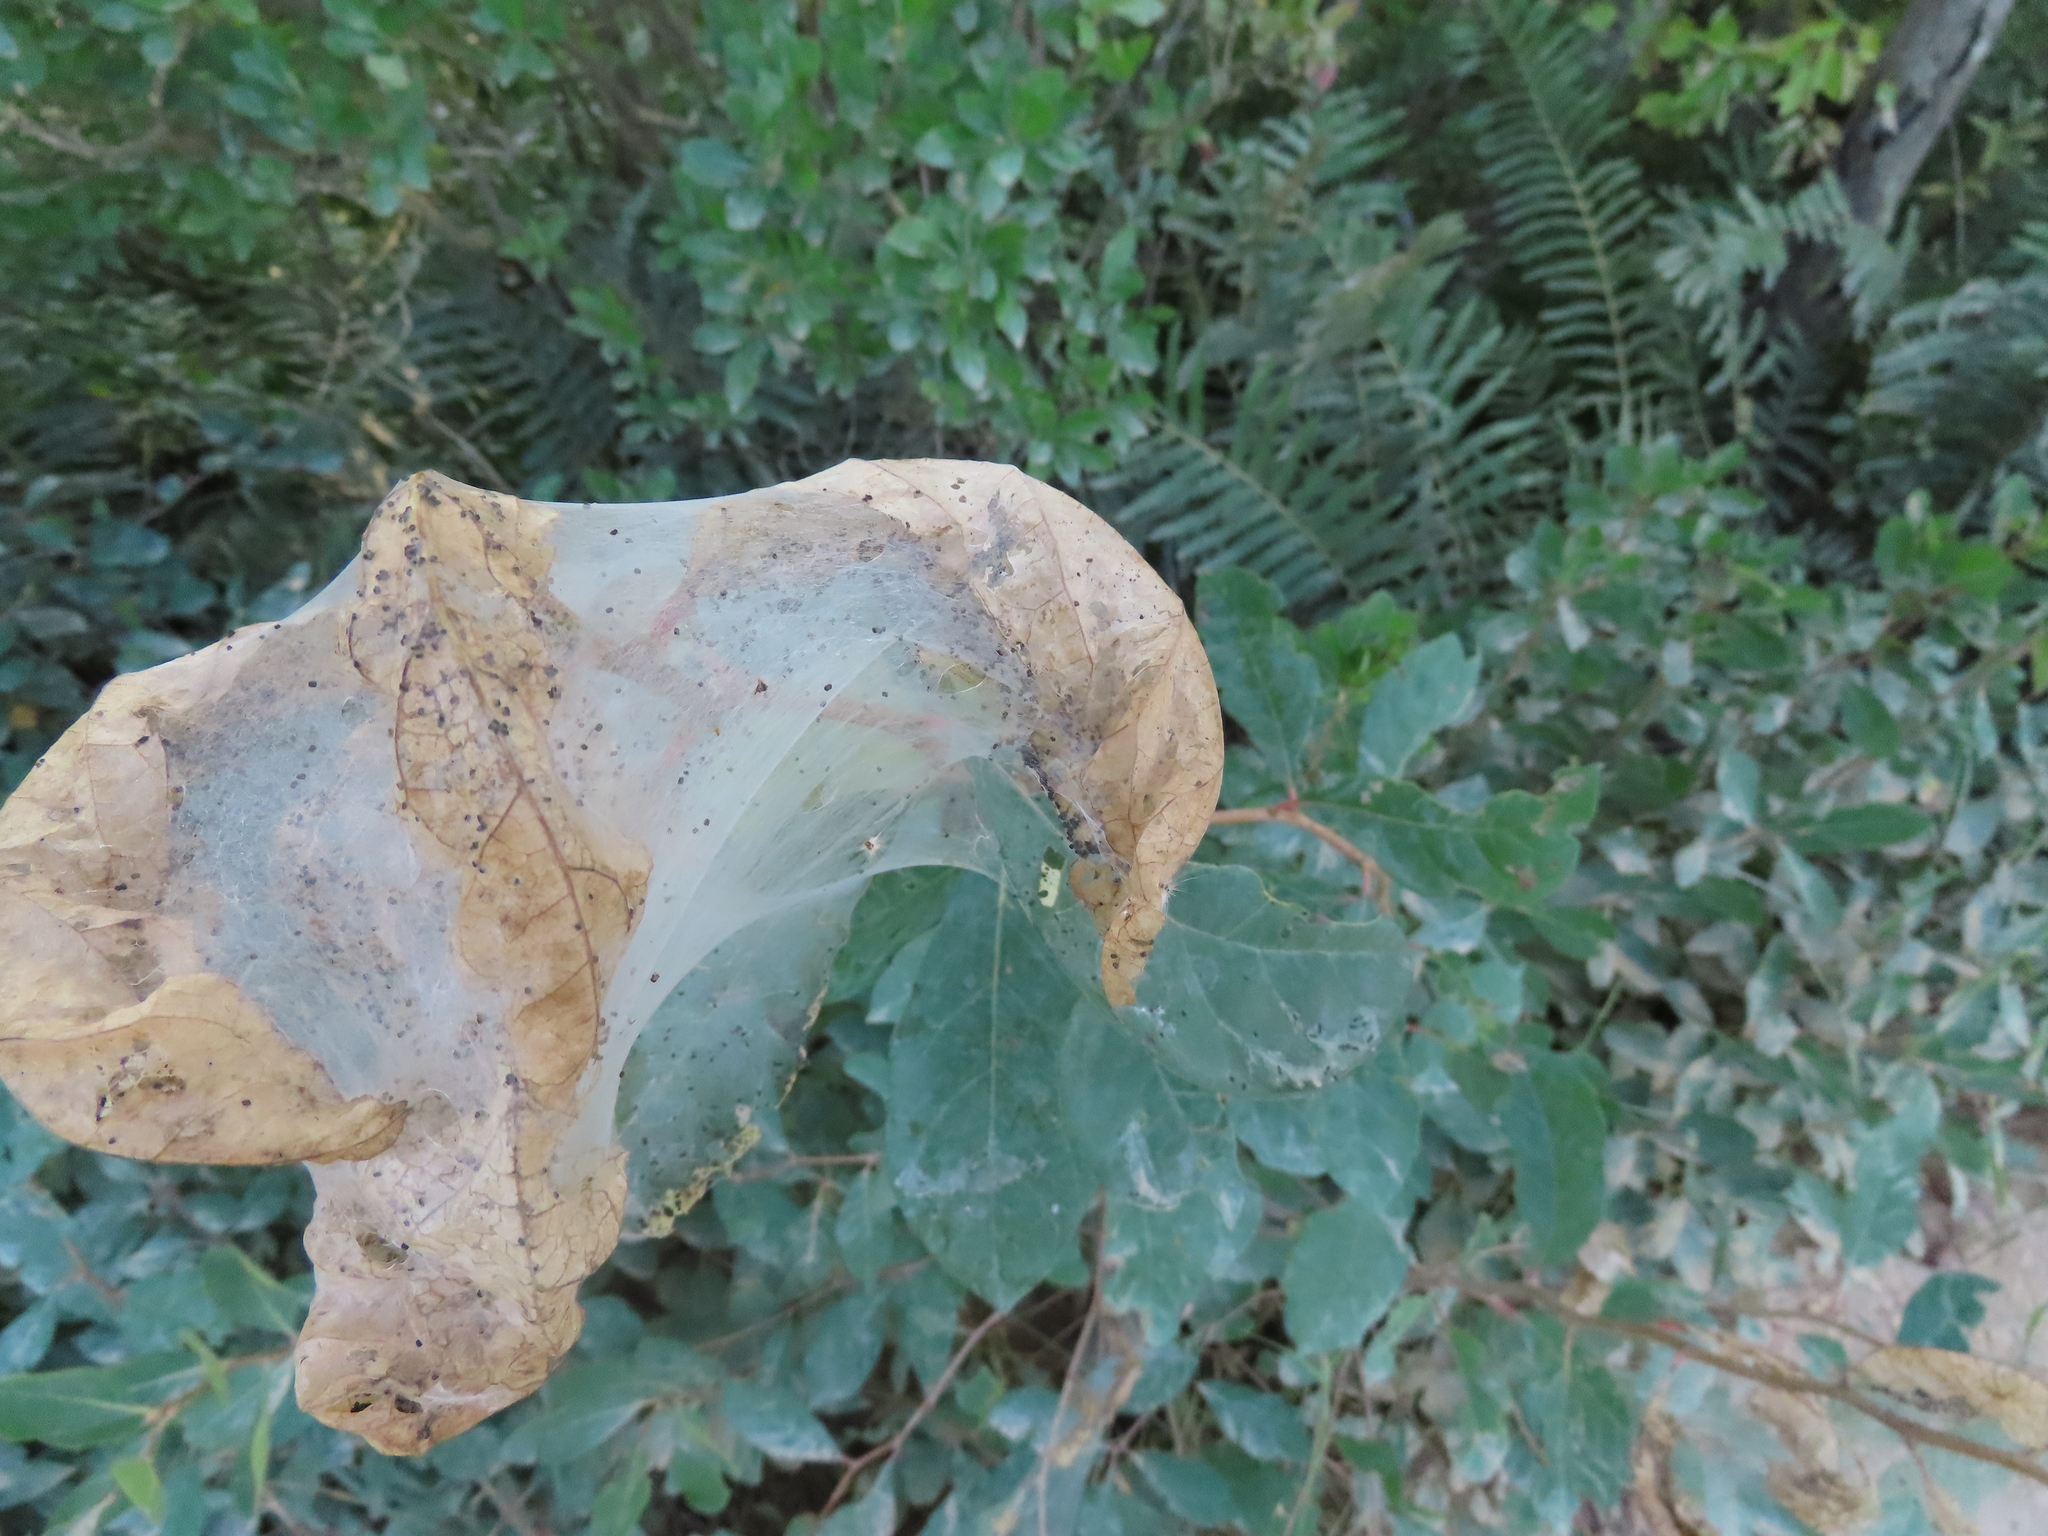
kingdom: Animalia
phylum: Arthropoda
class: Insecta
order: Lepidoptera
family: Erebidae
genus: Hyphantria
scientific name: Hyphantria cunea
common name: American white moth
